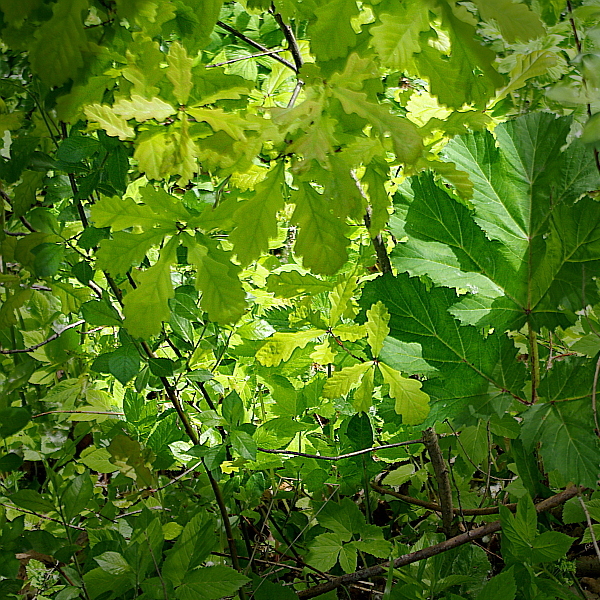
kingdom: Plantae
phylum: Tracheophyta
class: Magnoliopsida
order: Fagales
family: Fagaceae
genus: Quercus
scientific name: Quercus robur
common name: Pedunculate oak
